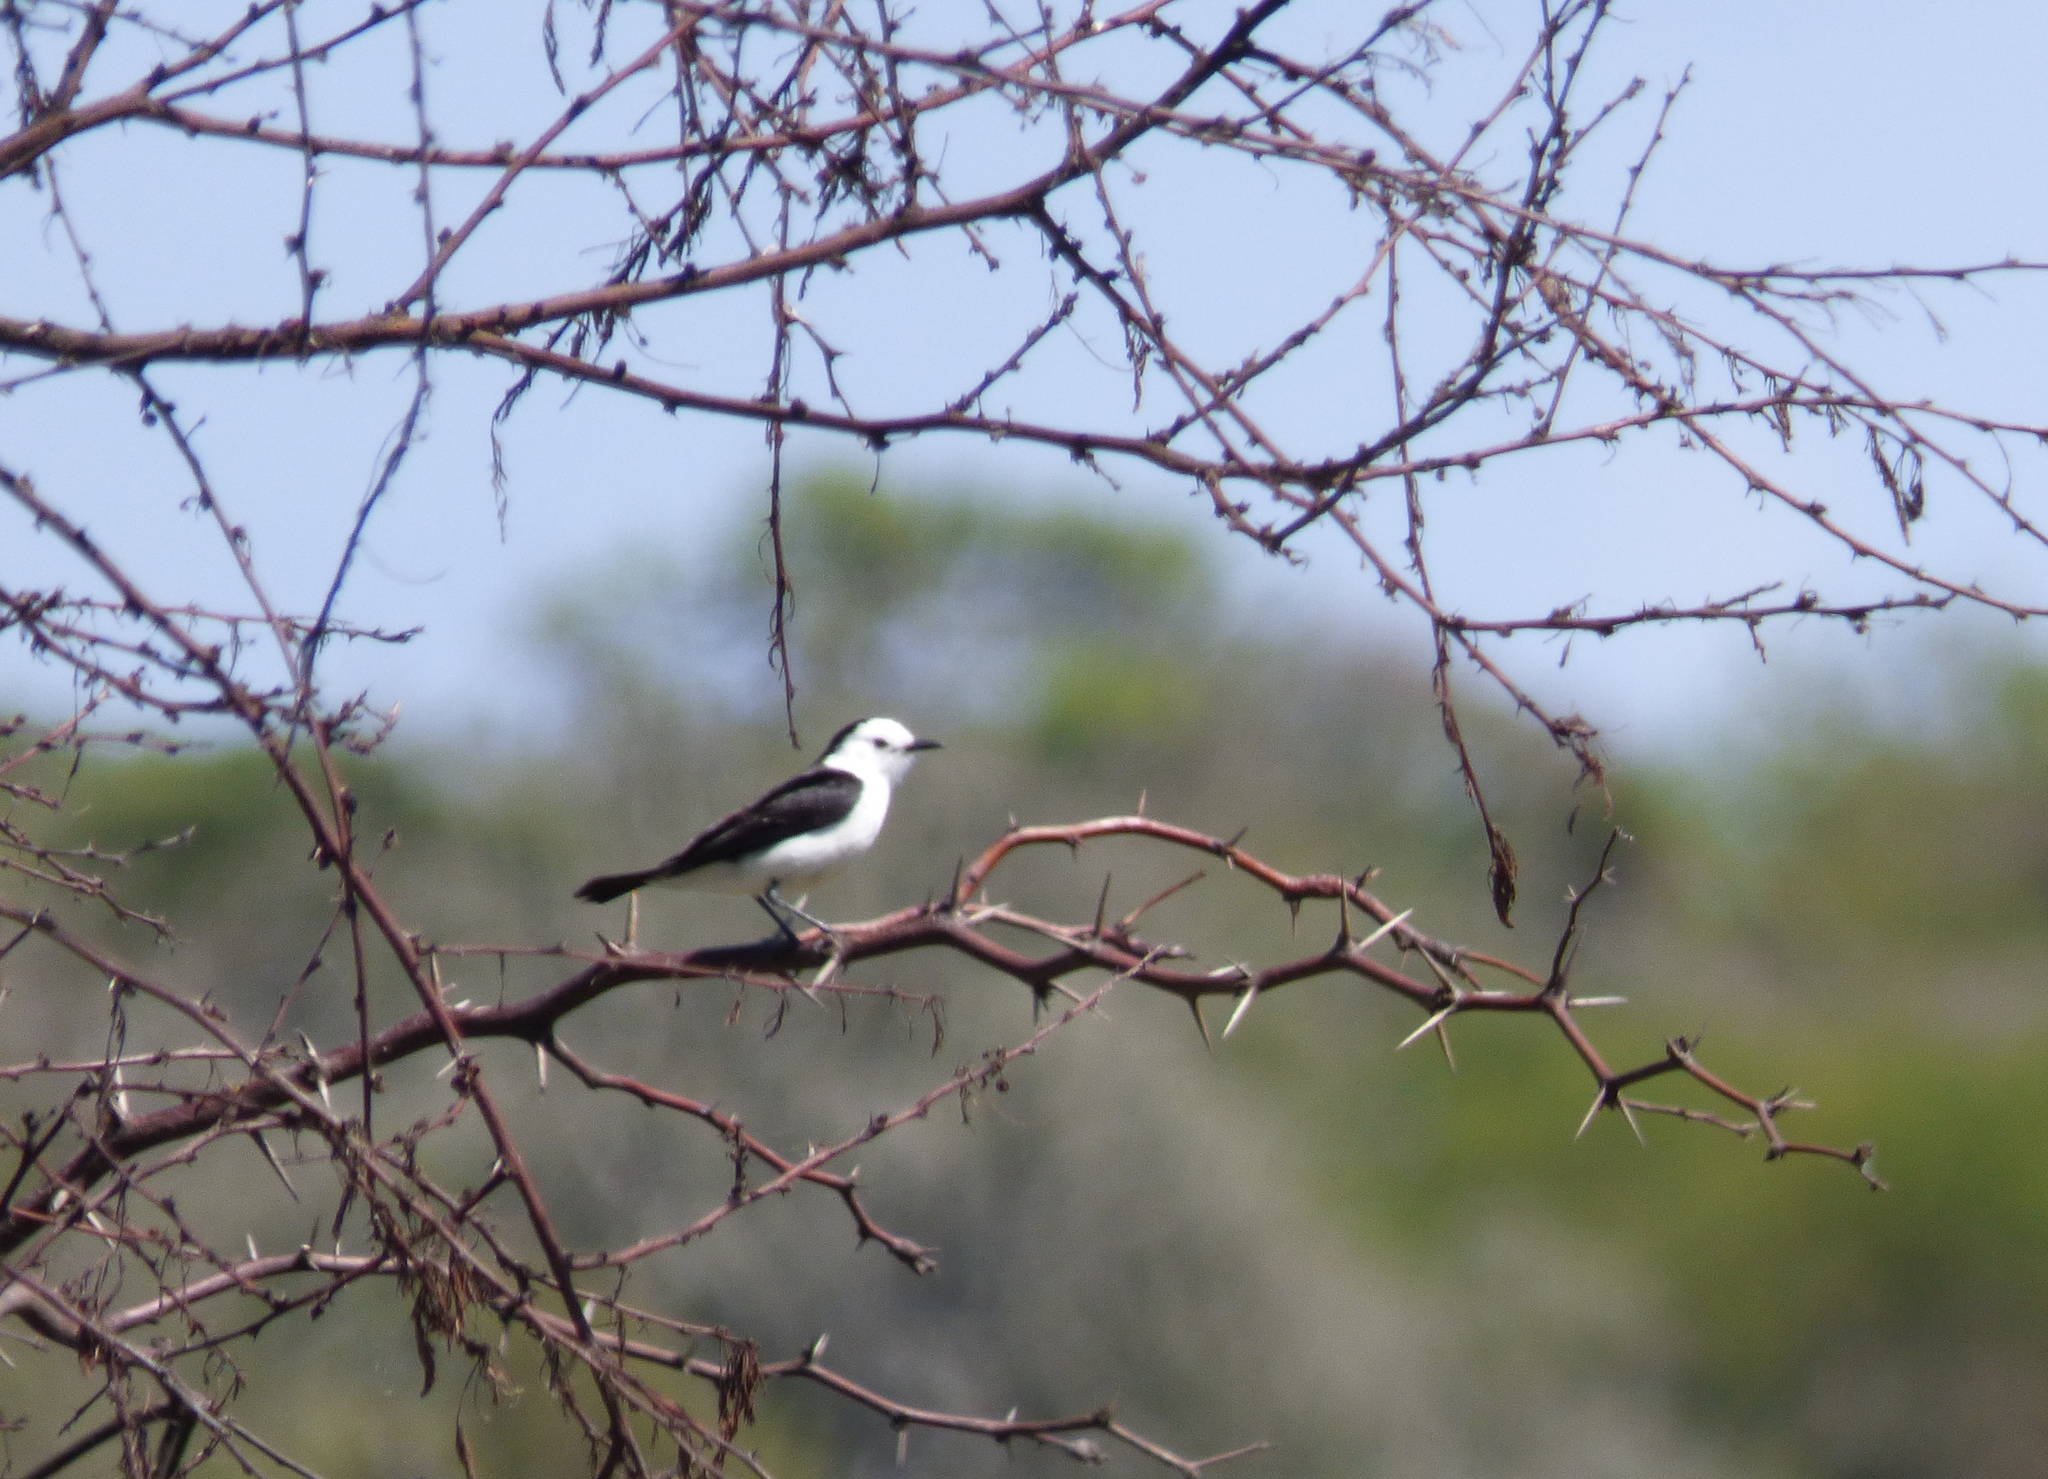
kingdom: Animalia
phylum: Chordata
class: Aves
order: Passeriformes
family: Tyrannidae
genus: Fluvicola
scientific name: Fluvicola pica
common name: Pied water-tyrant
